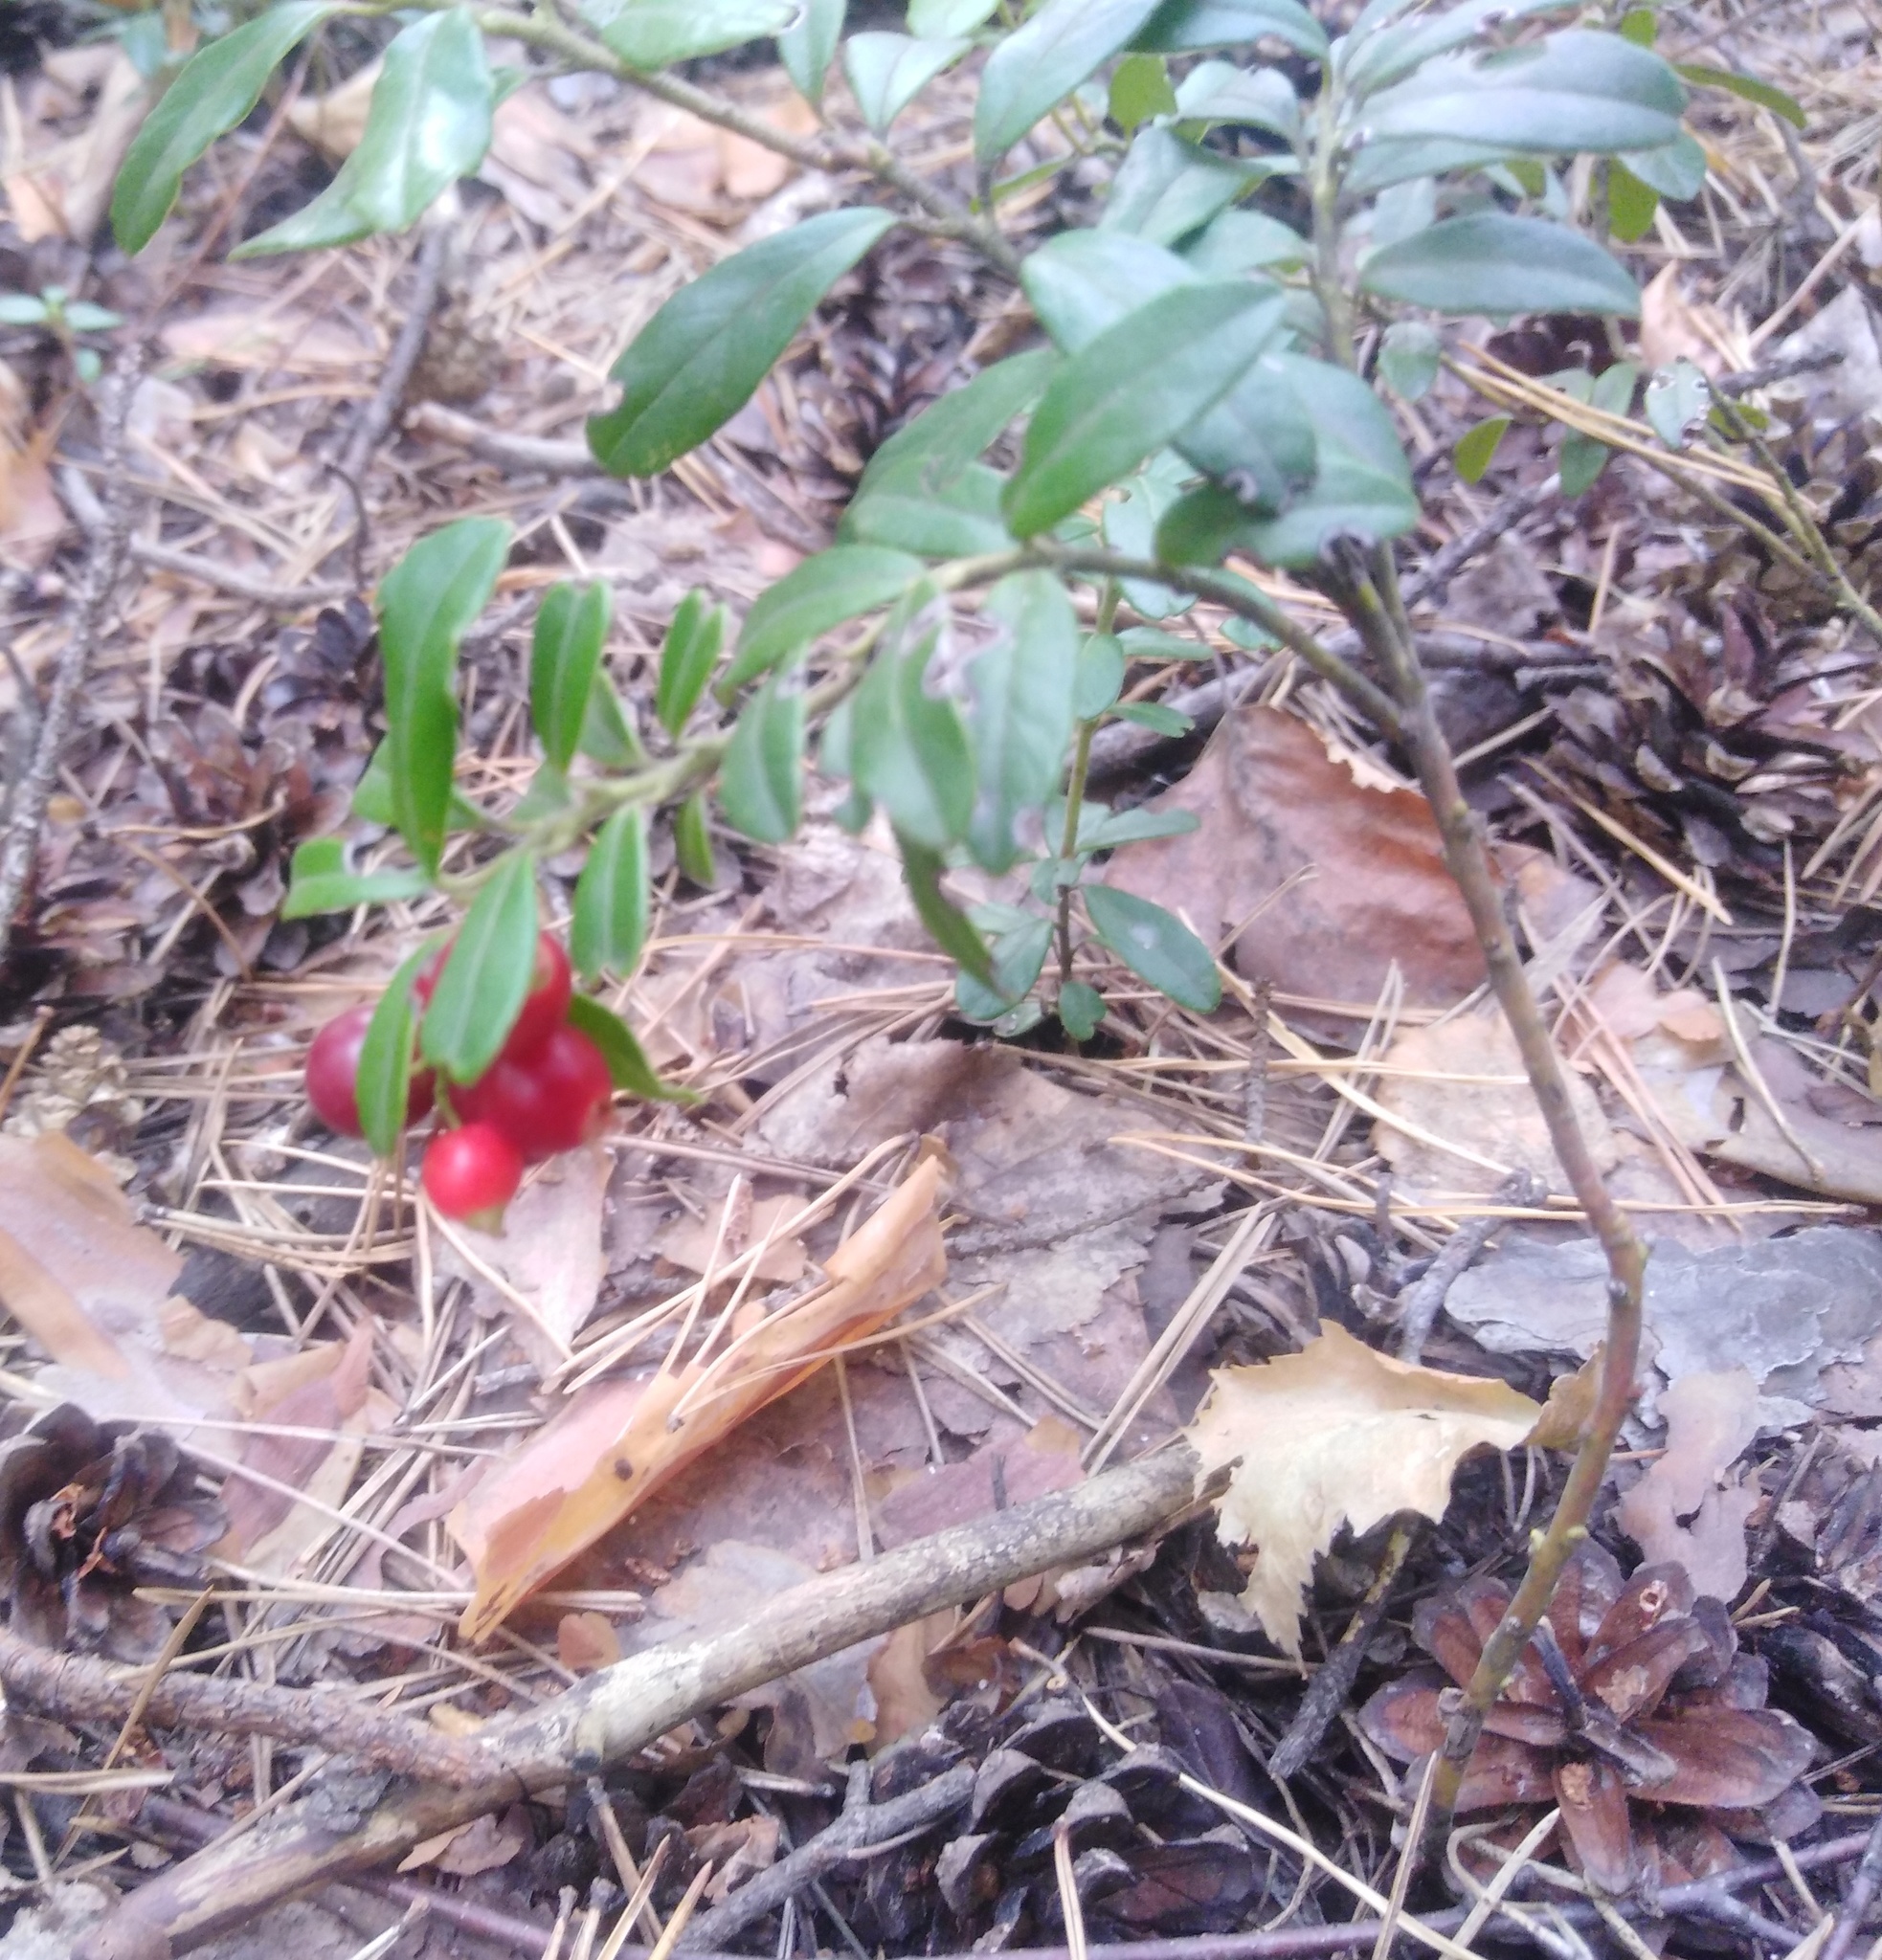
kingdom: Plantae
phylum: Tracheophyta
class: Magnoliopsida
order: Ericales
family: Ericaceae
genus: Vaccinium
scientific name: Vaccinium vitis-idaea
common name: Cowberry
